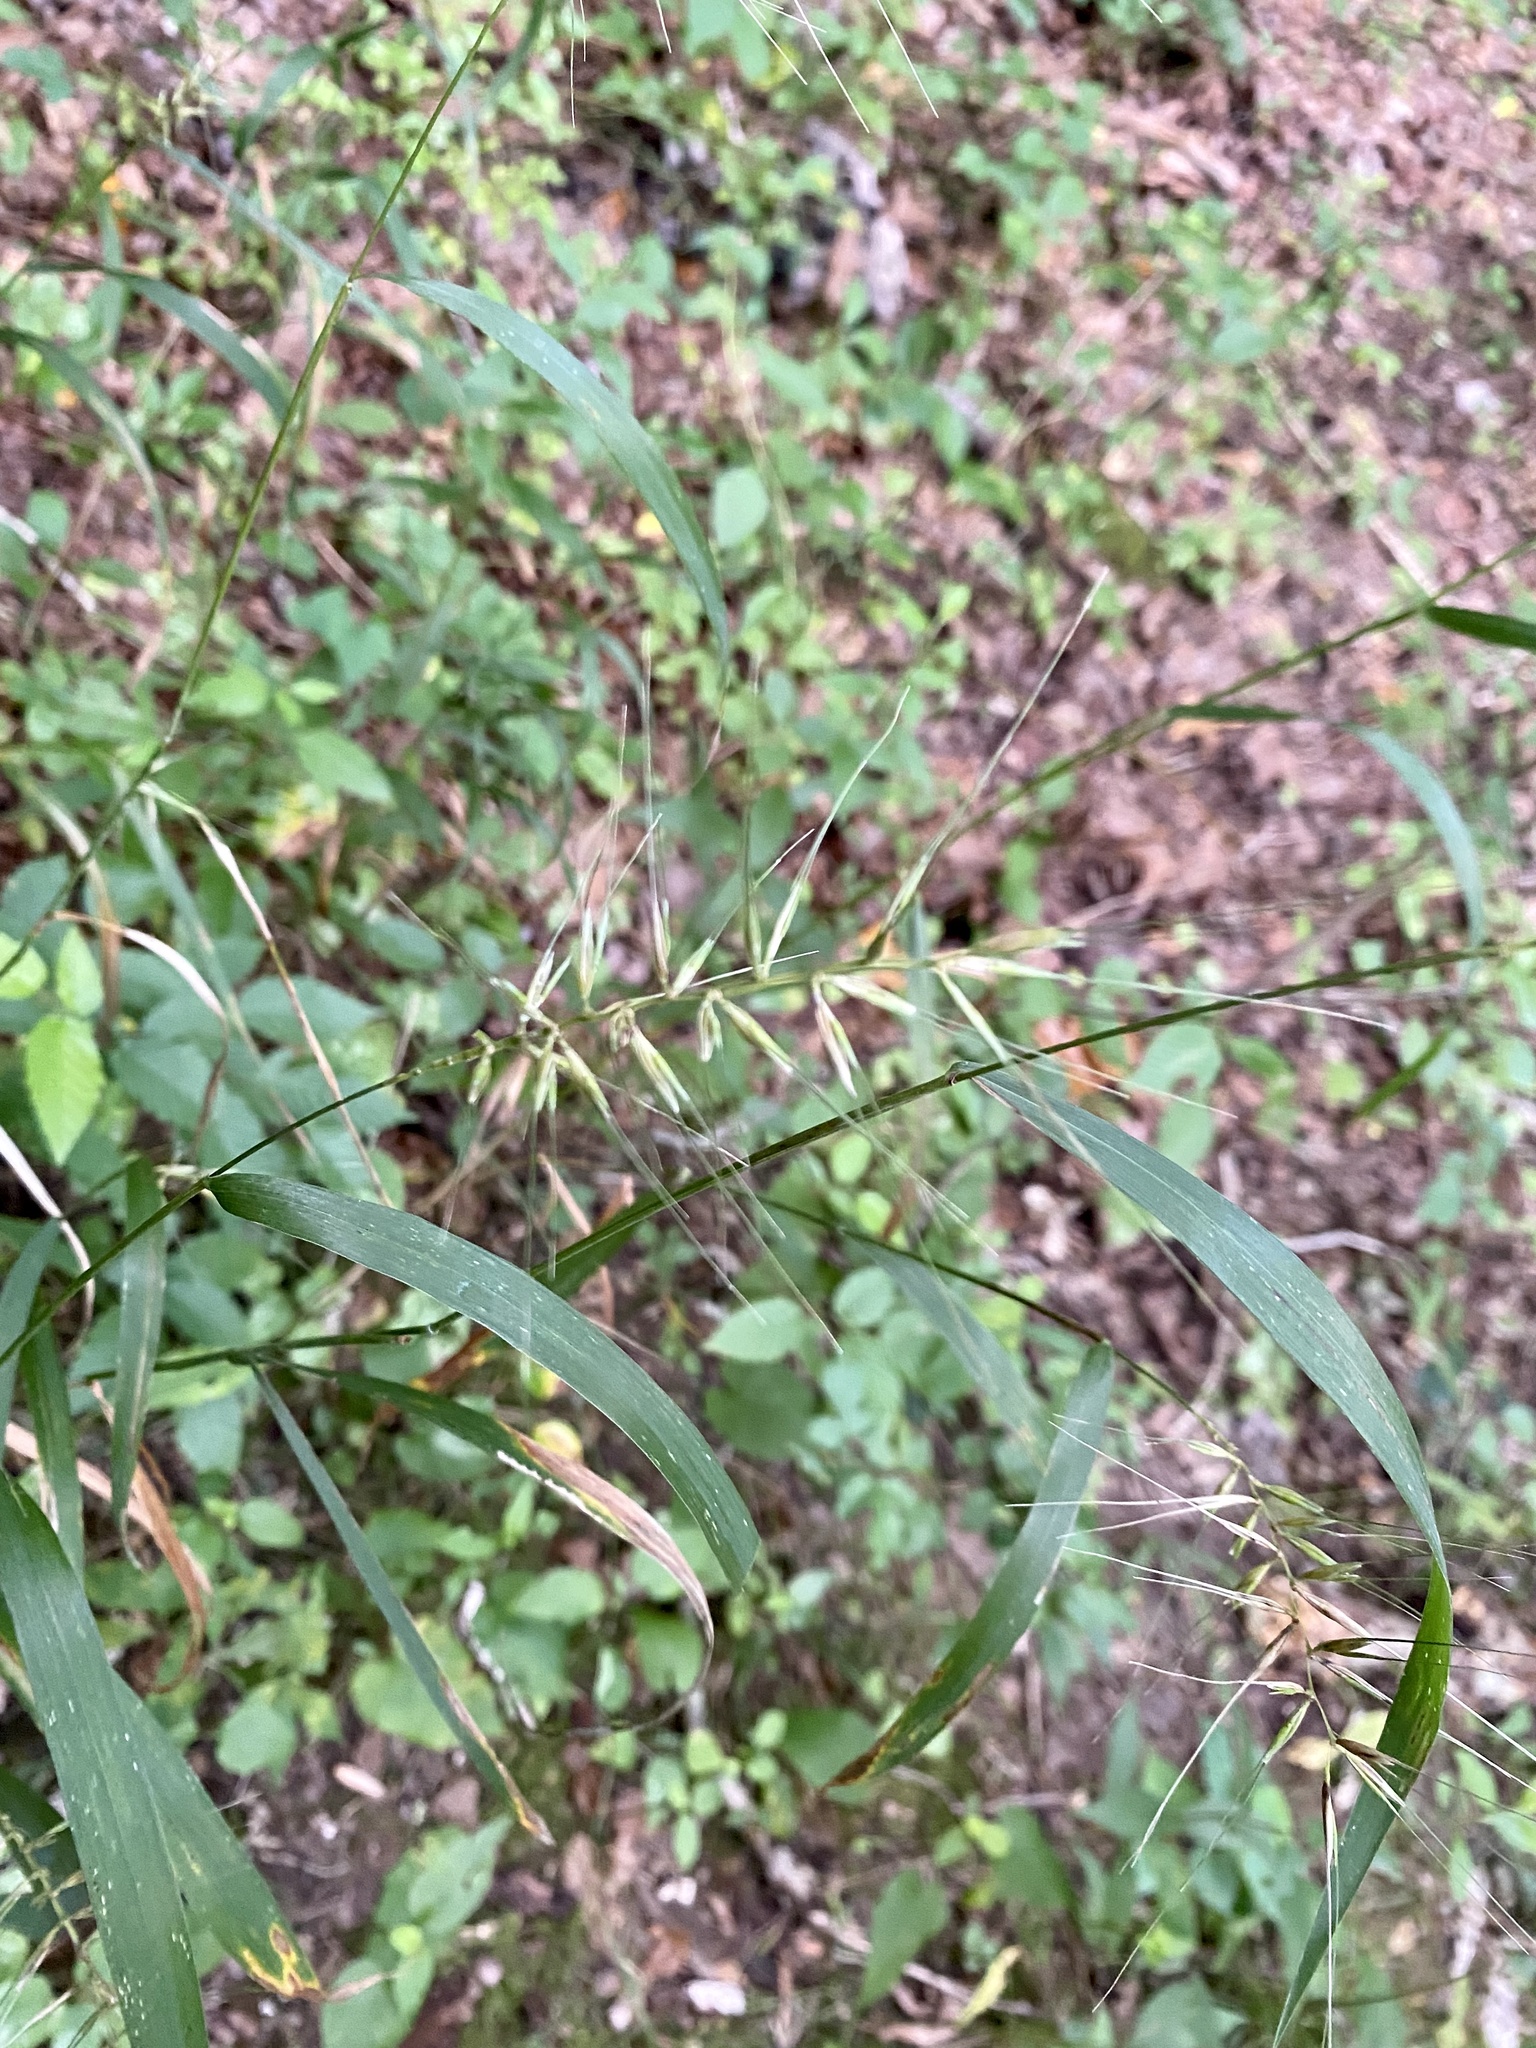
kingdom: Plantae
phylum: Tracheophyta
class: Liliopsida
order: Poales
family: Poaceae
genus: Elymus
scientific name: Elymus hystrix
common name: Bottlebrush grass
